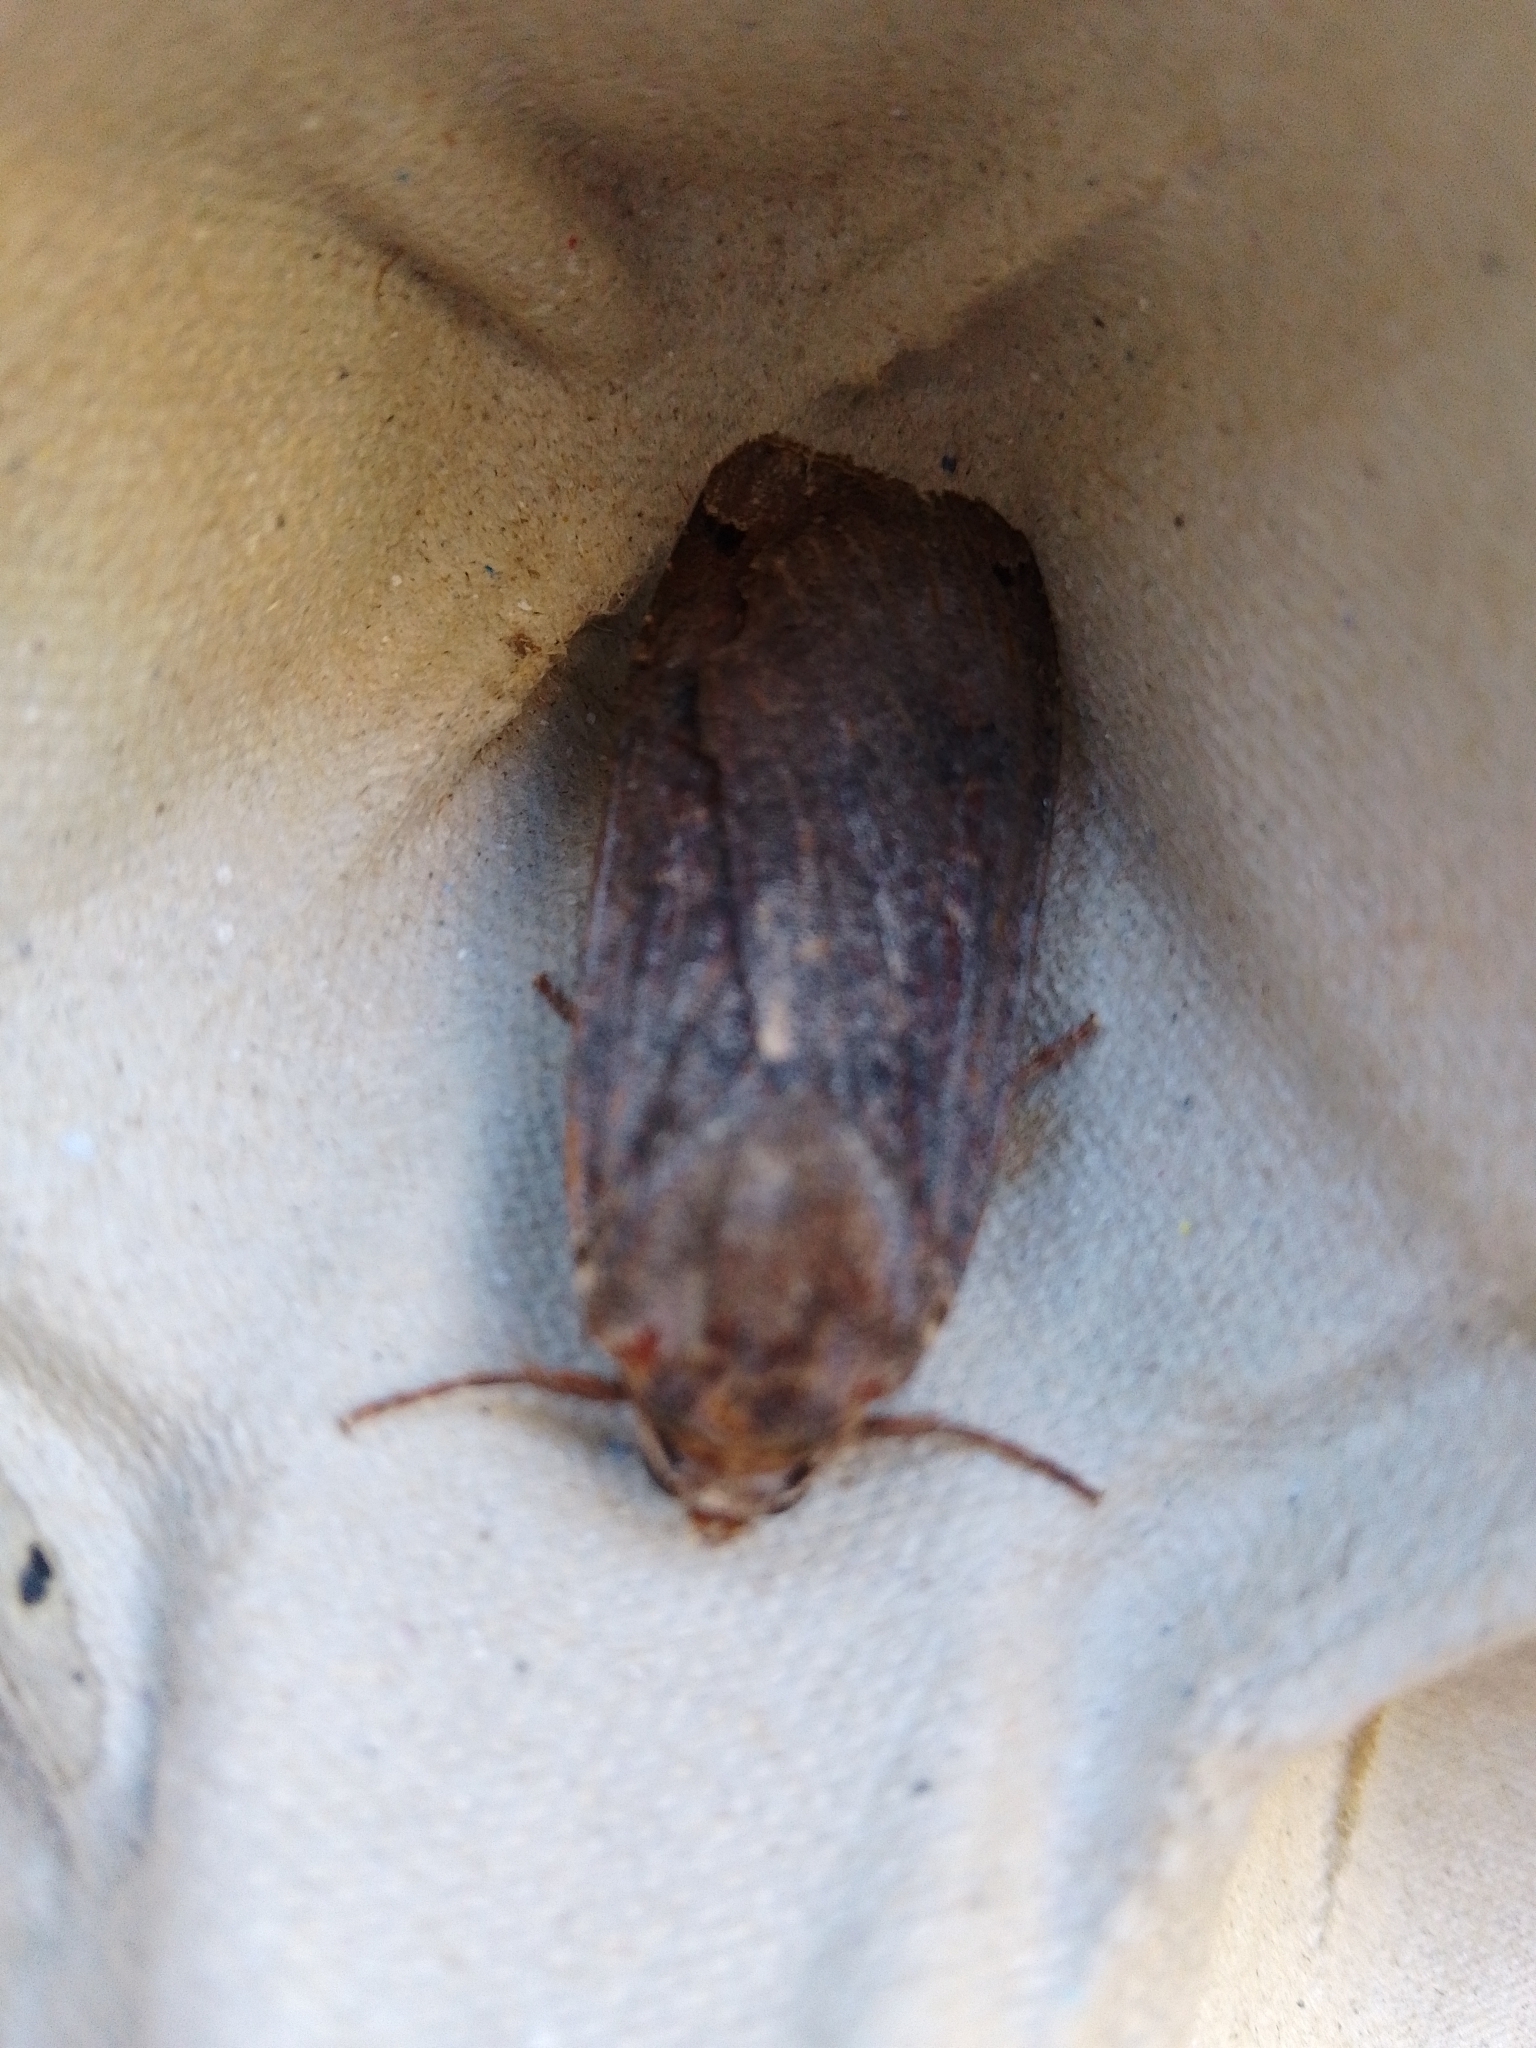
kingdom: Animalia
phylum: Arthropoda
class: Insecta
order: Lepidoptera
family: Noctuidae
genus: Noctua
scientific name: Noctua pronuba
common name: Large yellow underwing
